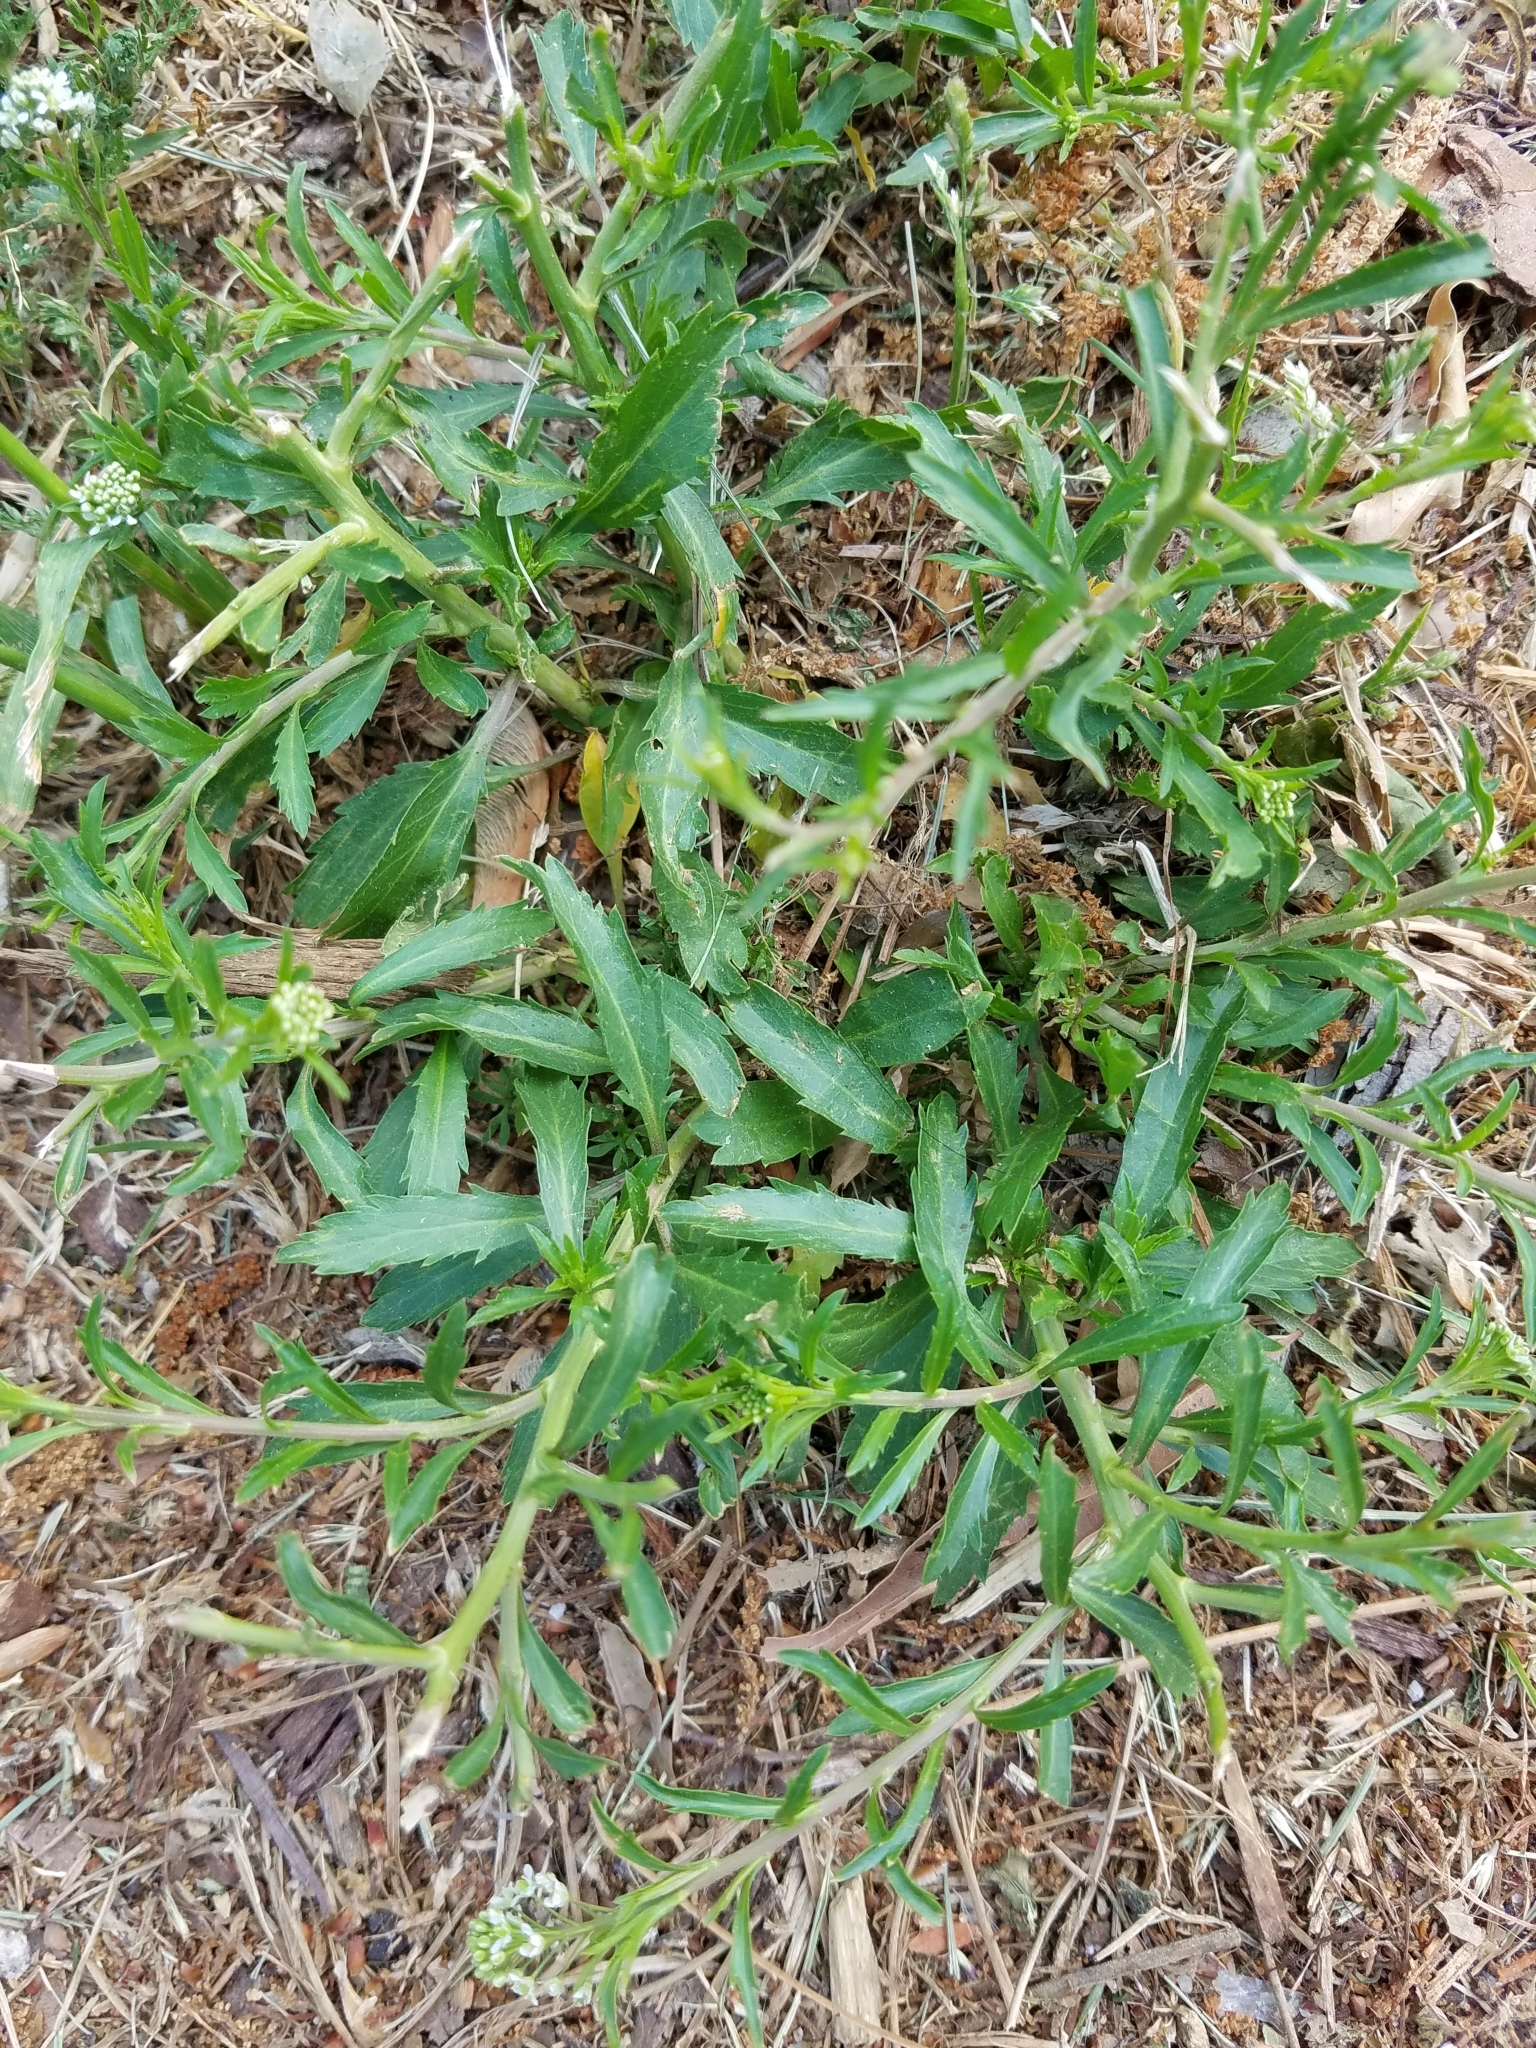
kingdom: Plantae
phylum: Tracheophyta
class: Magnoliopsida
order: Brassicales
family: Brassicaceae
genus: Lepidium
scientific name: Lepidium virginicum
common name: Least pepperwort
